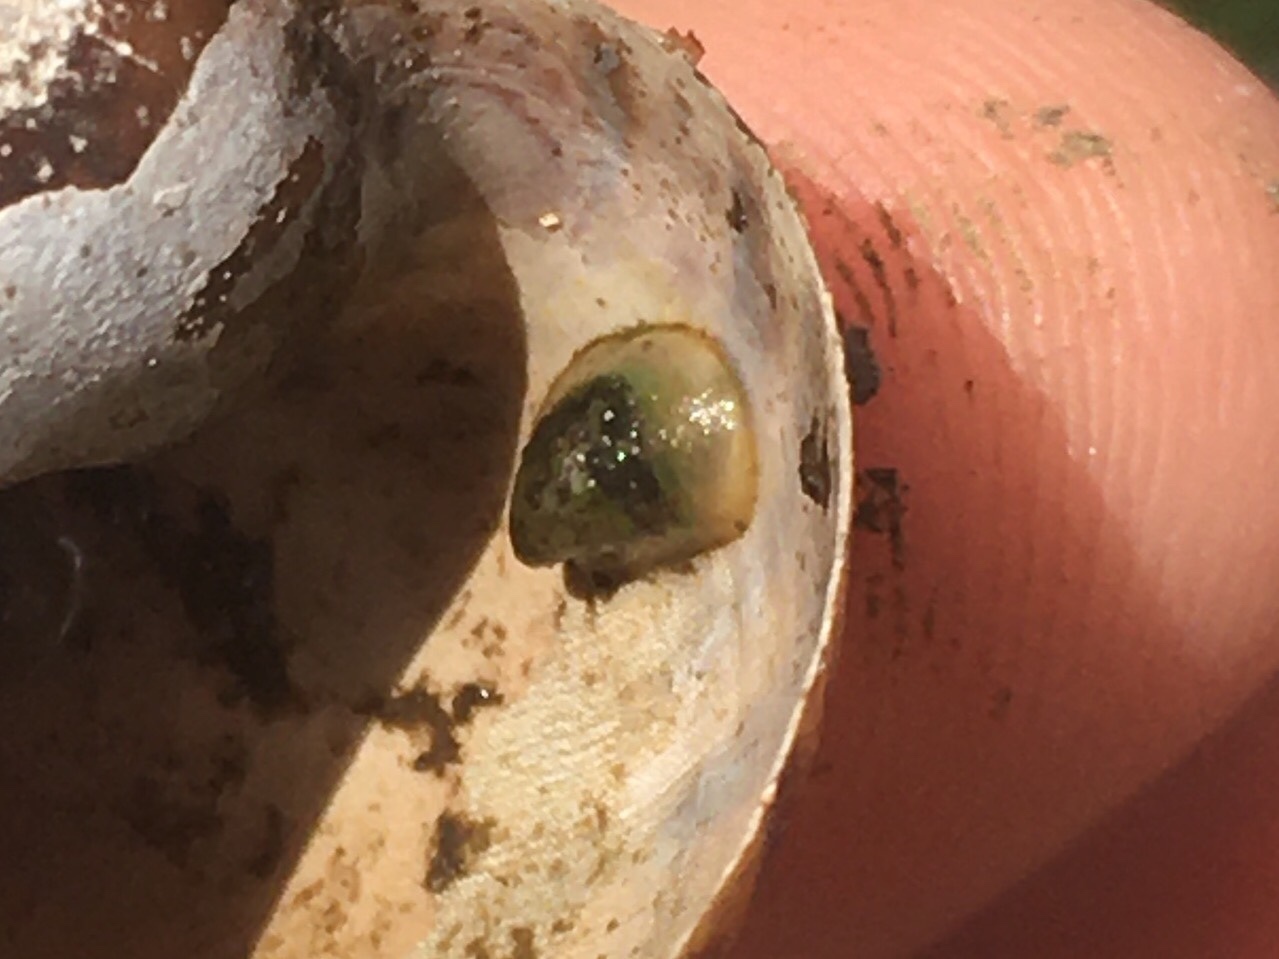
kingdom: Animalia
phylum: Mollusca
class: Gastropoda
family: Planorbidae
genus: Uncancylus
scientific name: Uncancylus concentricus
